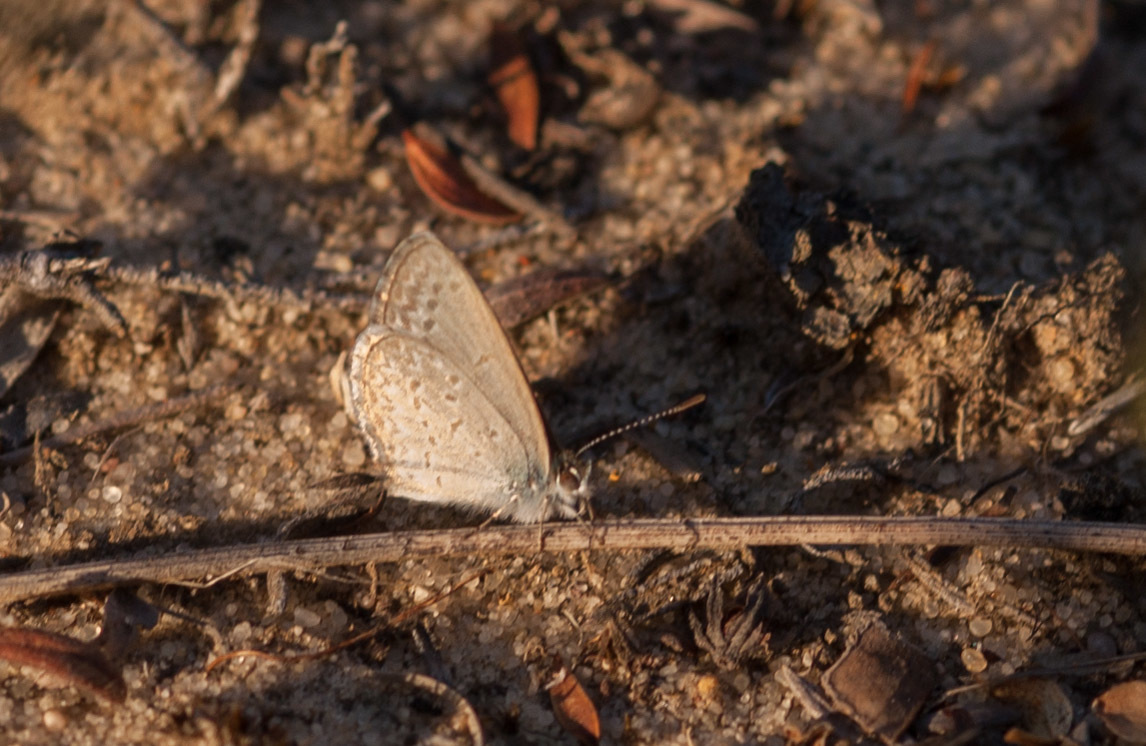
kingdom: Animalia
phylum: Arthropoda
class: Insecta
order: Lepidoptera
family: Lycaenidae
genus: Zizina
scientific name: Zizina labradus
